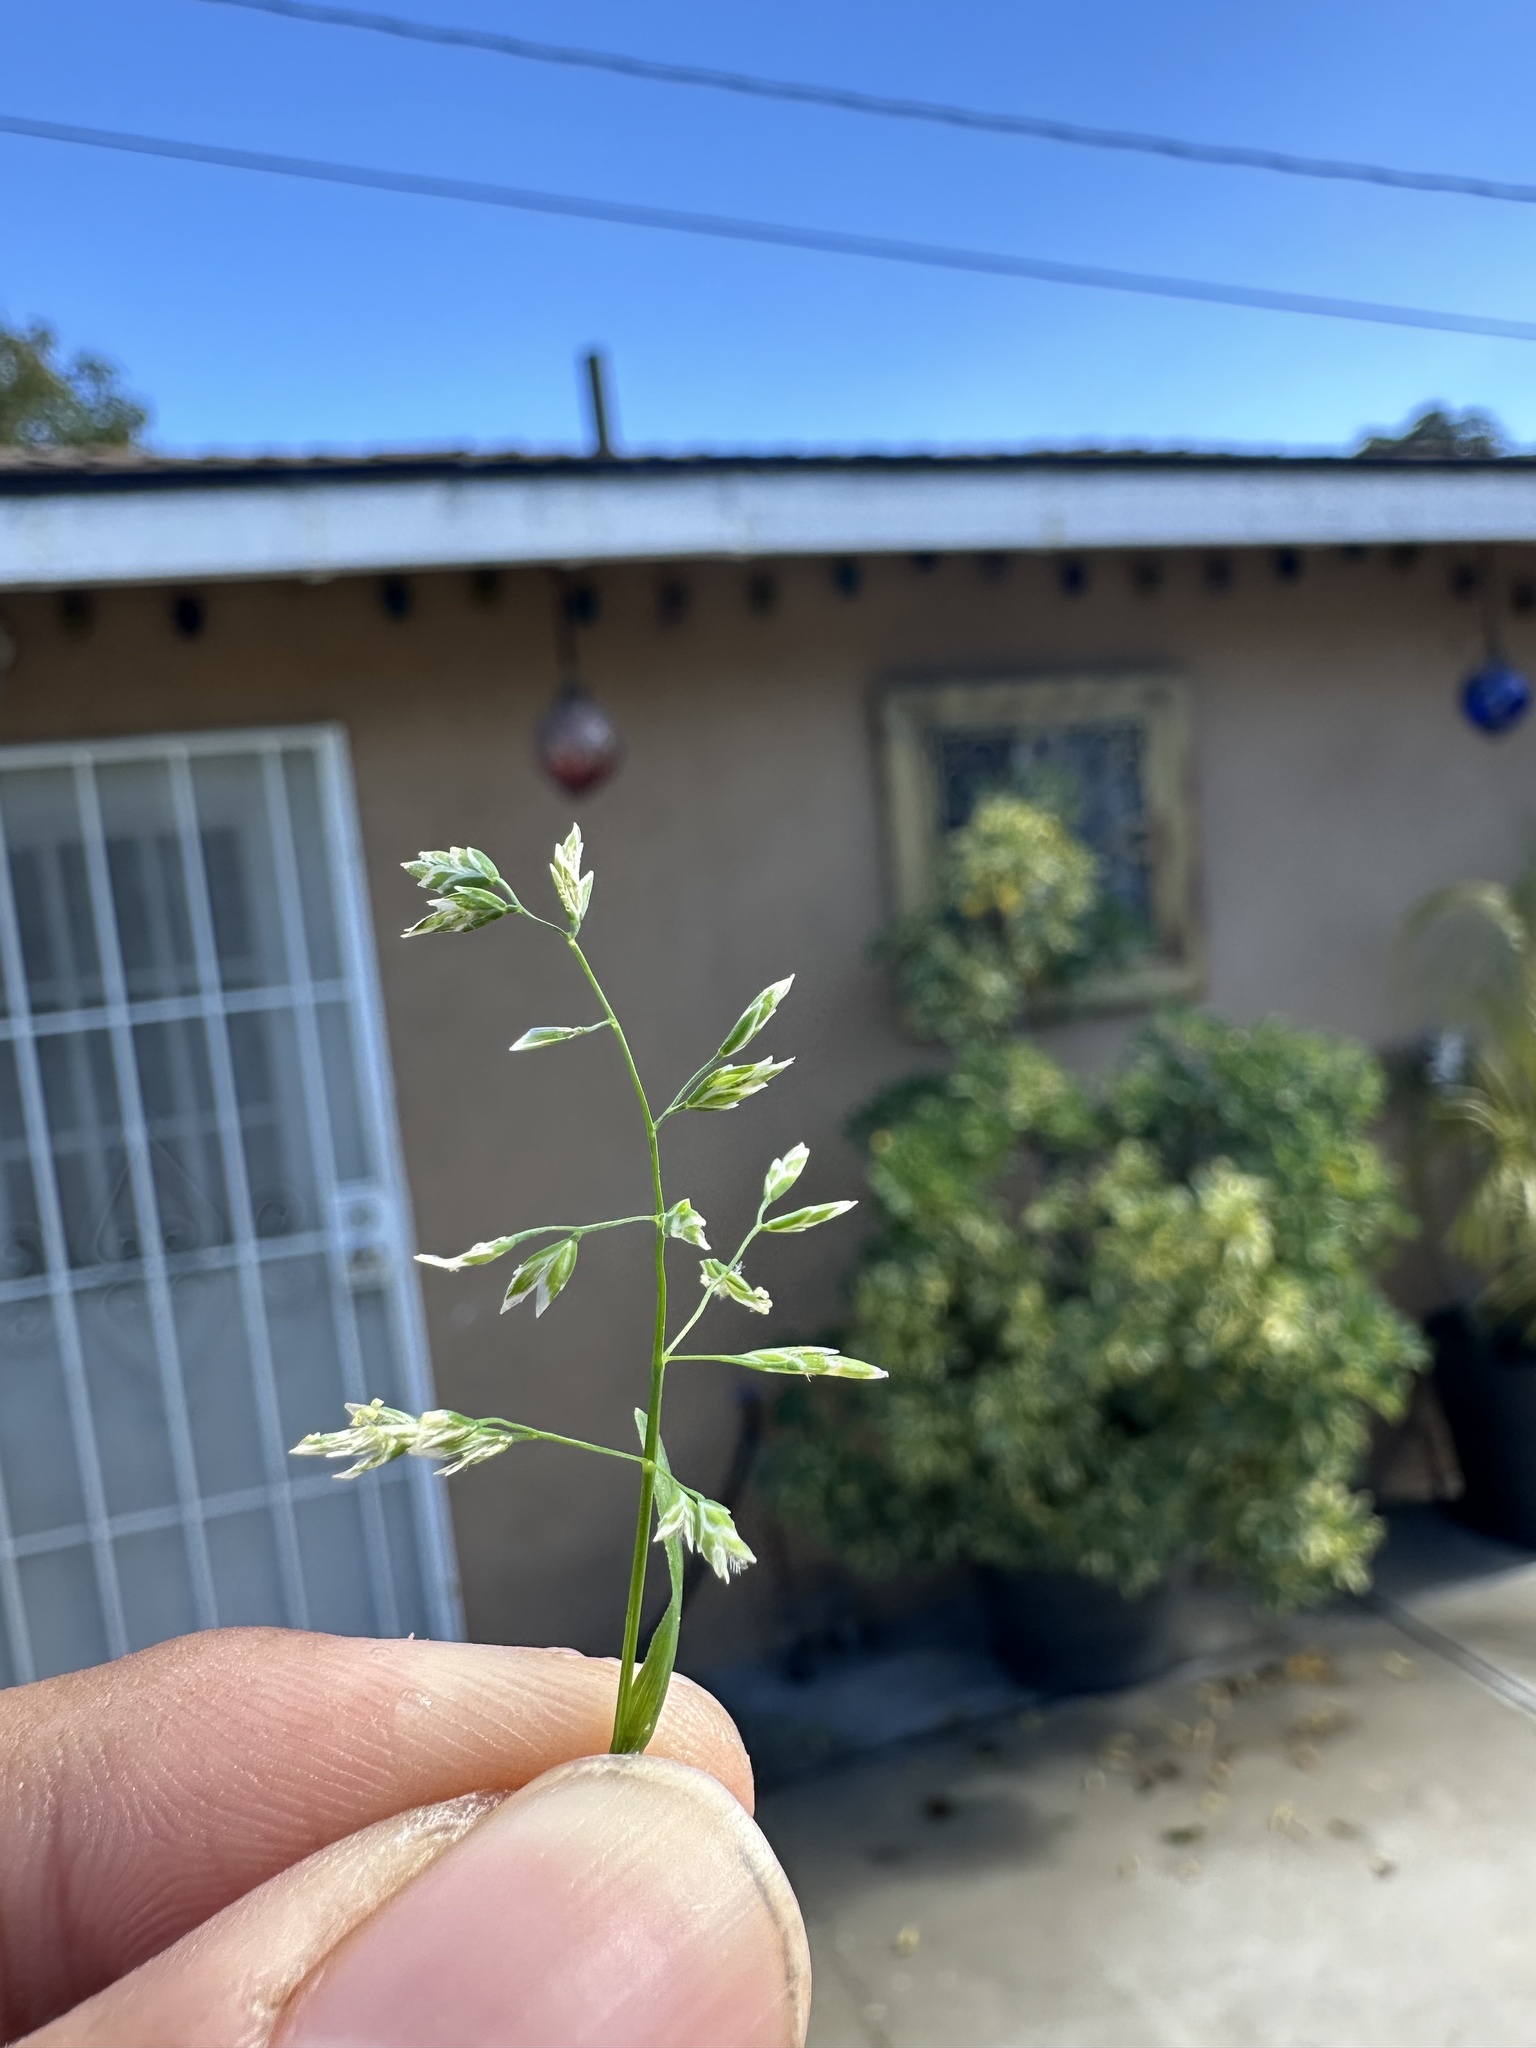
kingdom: Plantae
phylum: Tracheophyta
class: Liliopsida
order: Poales
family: Poaceae
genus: Poa
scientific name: Poa annua
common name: Annual bluegrass
